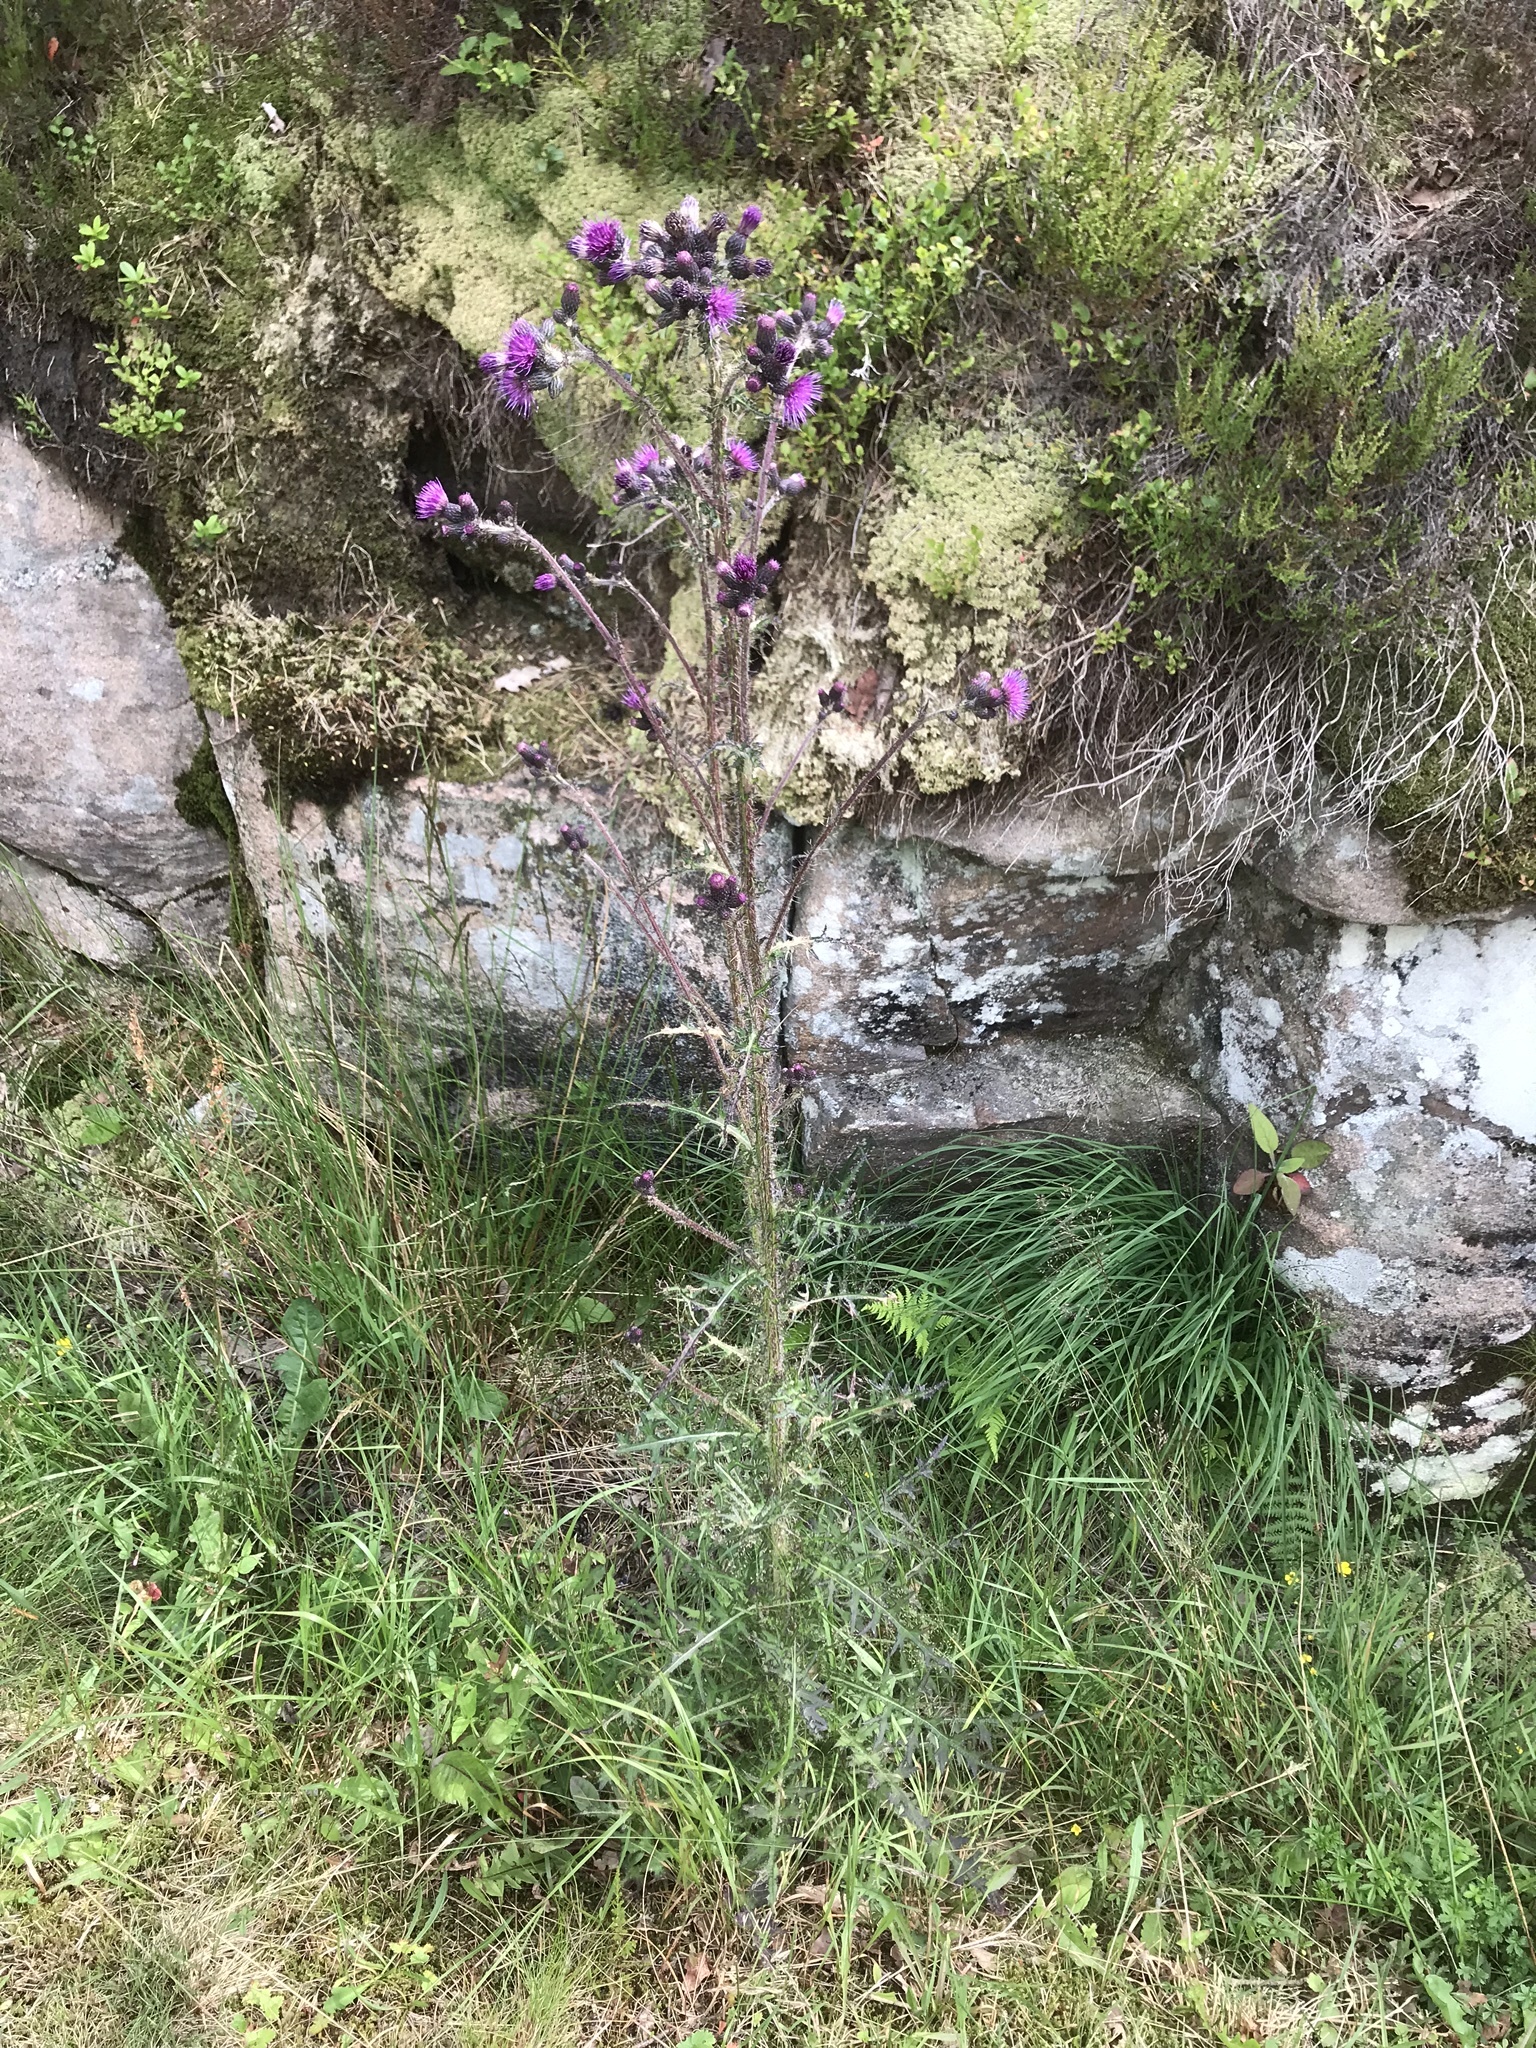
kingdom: Plantae
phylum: Tracheophyta
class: Magnoliopsida
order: Asterales
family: Asteraceae
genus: Cirsium
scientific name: Cirsium palustre
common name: Marsh thistle
